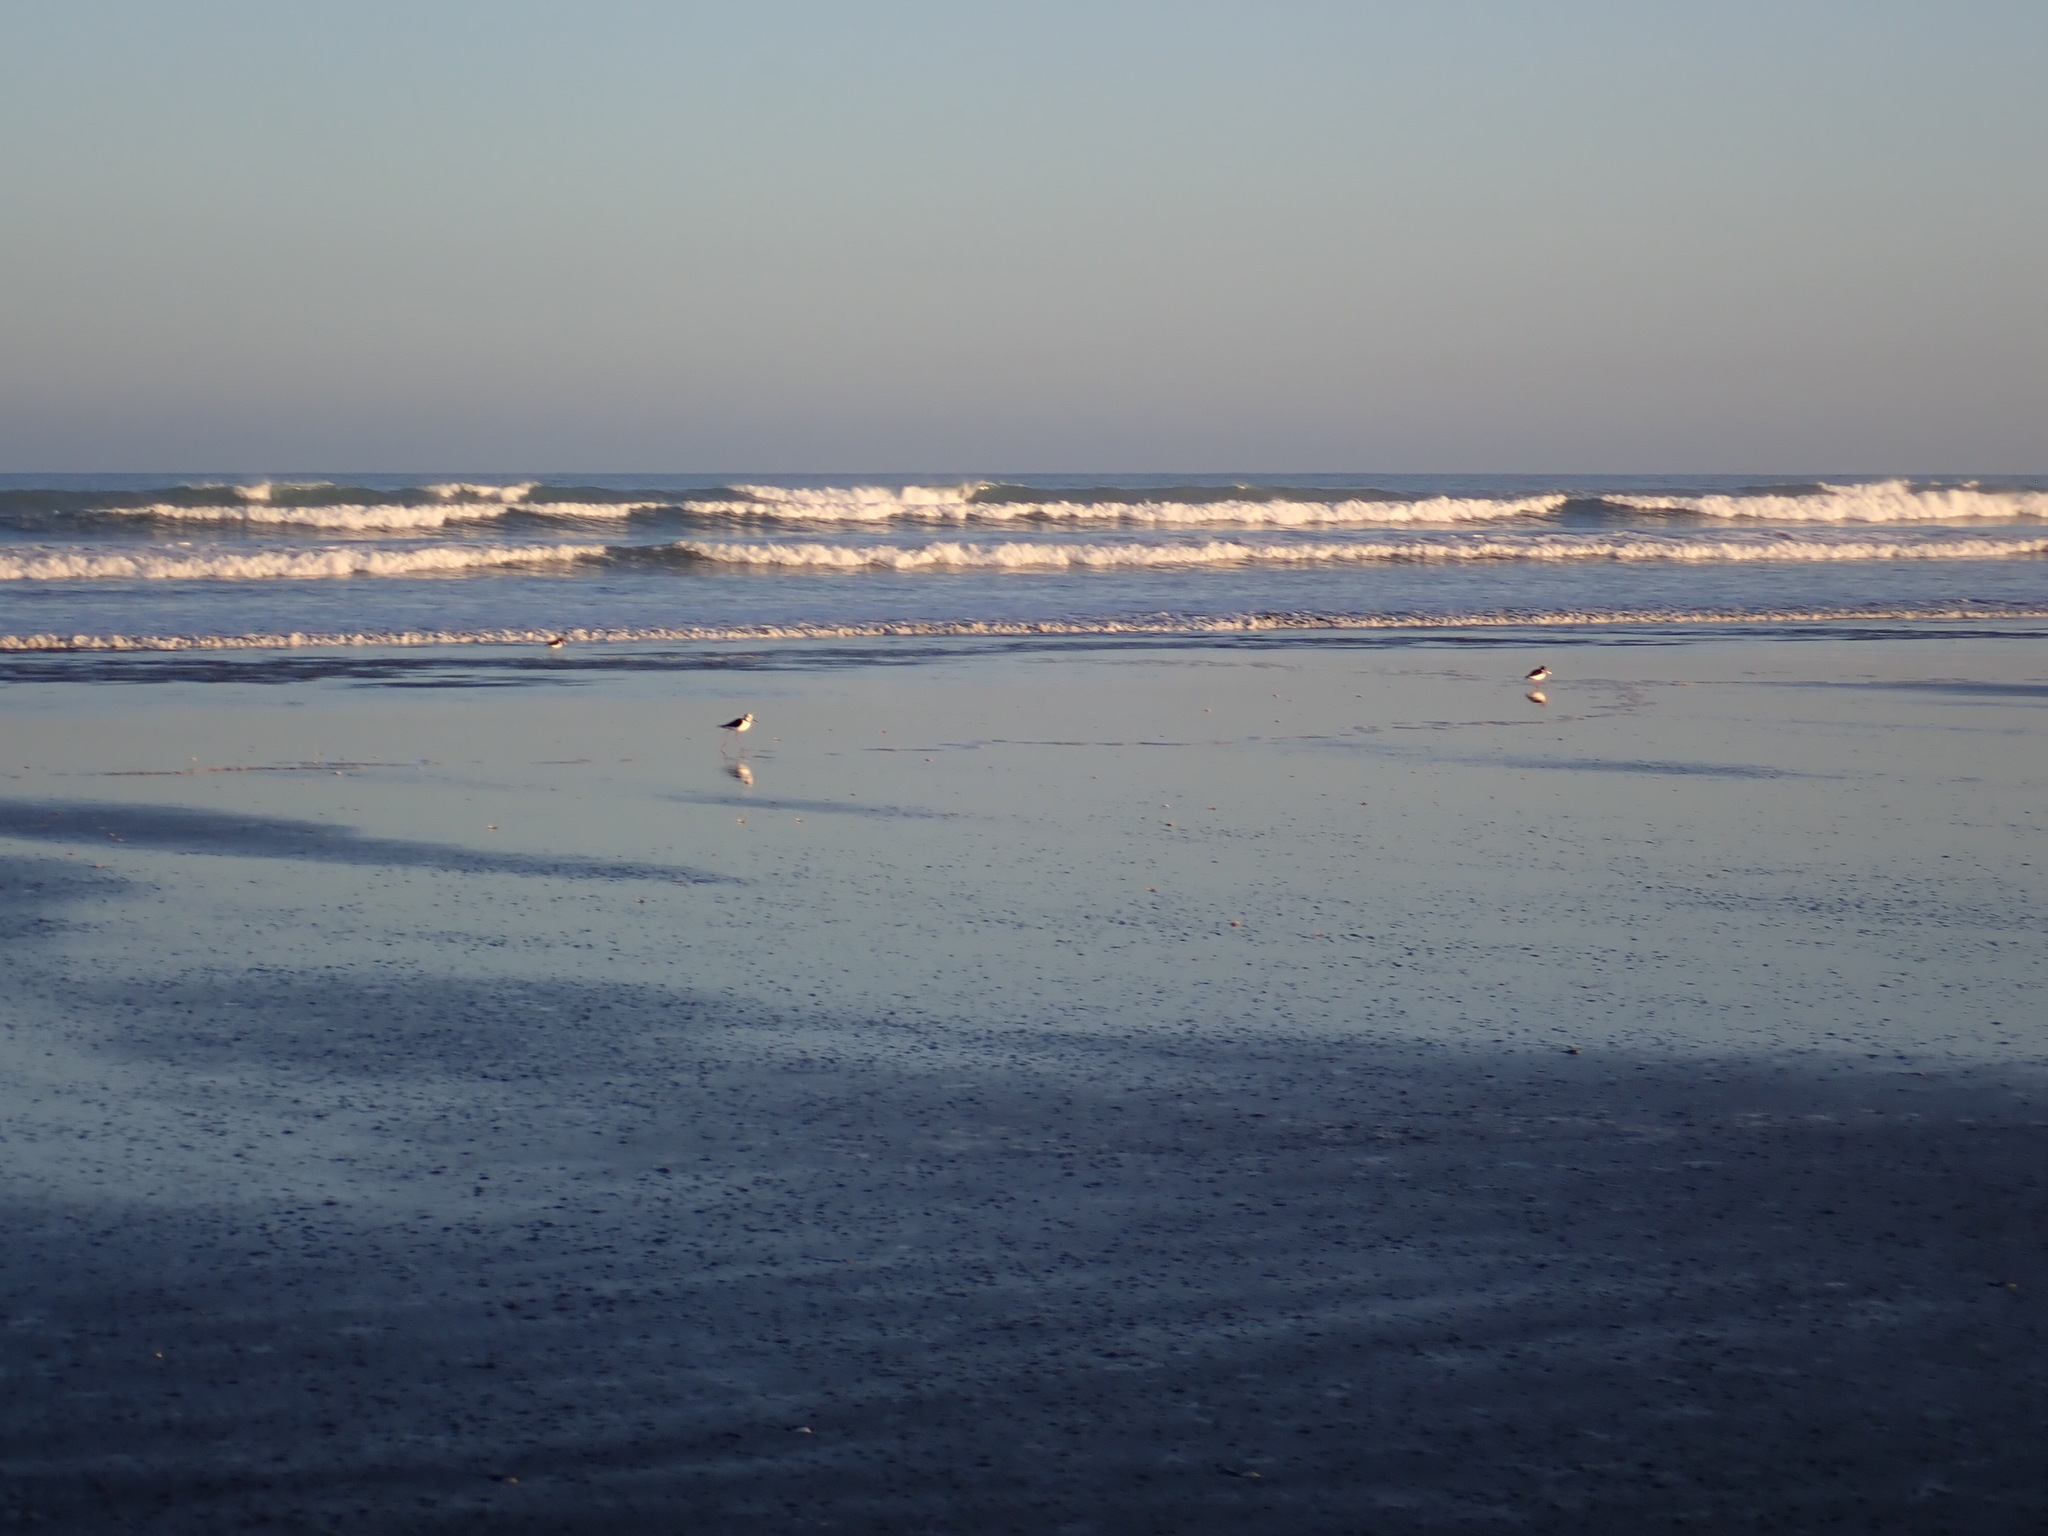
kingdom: Animalia
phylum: Chordata
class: Aves
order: Charadriiformes
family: Recurvirostridae
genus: Himantopus
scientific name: Himantopus leucocephalus
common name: White-headed stilt
